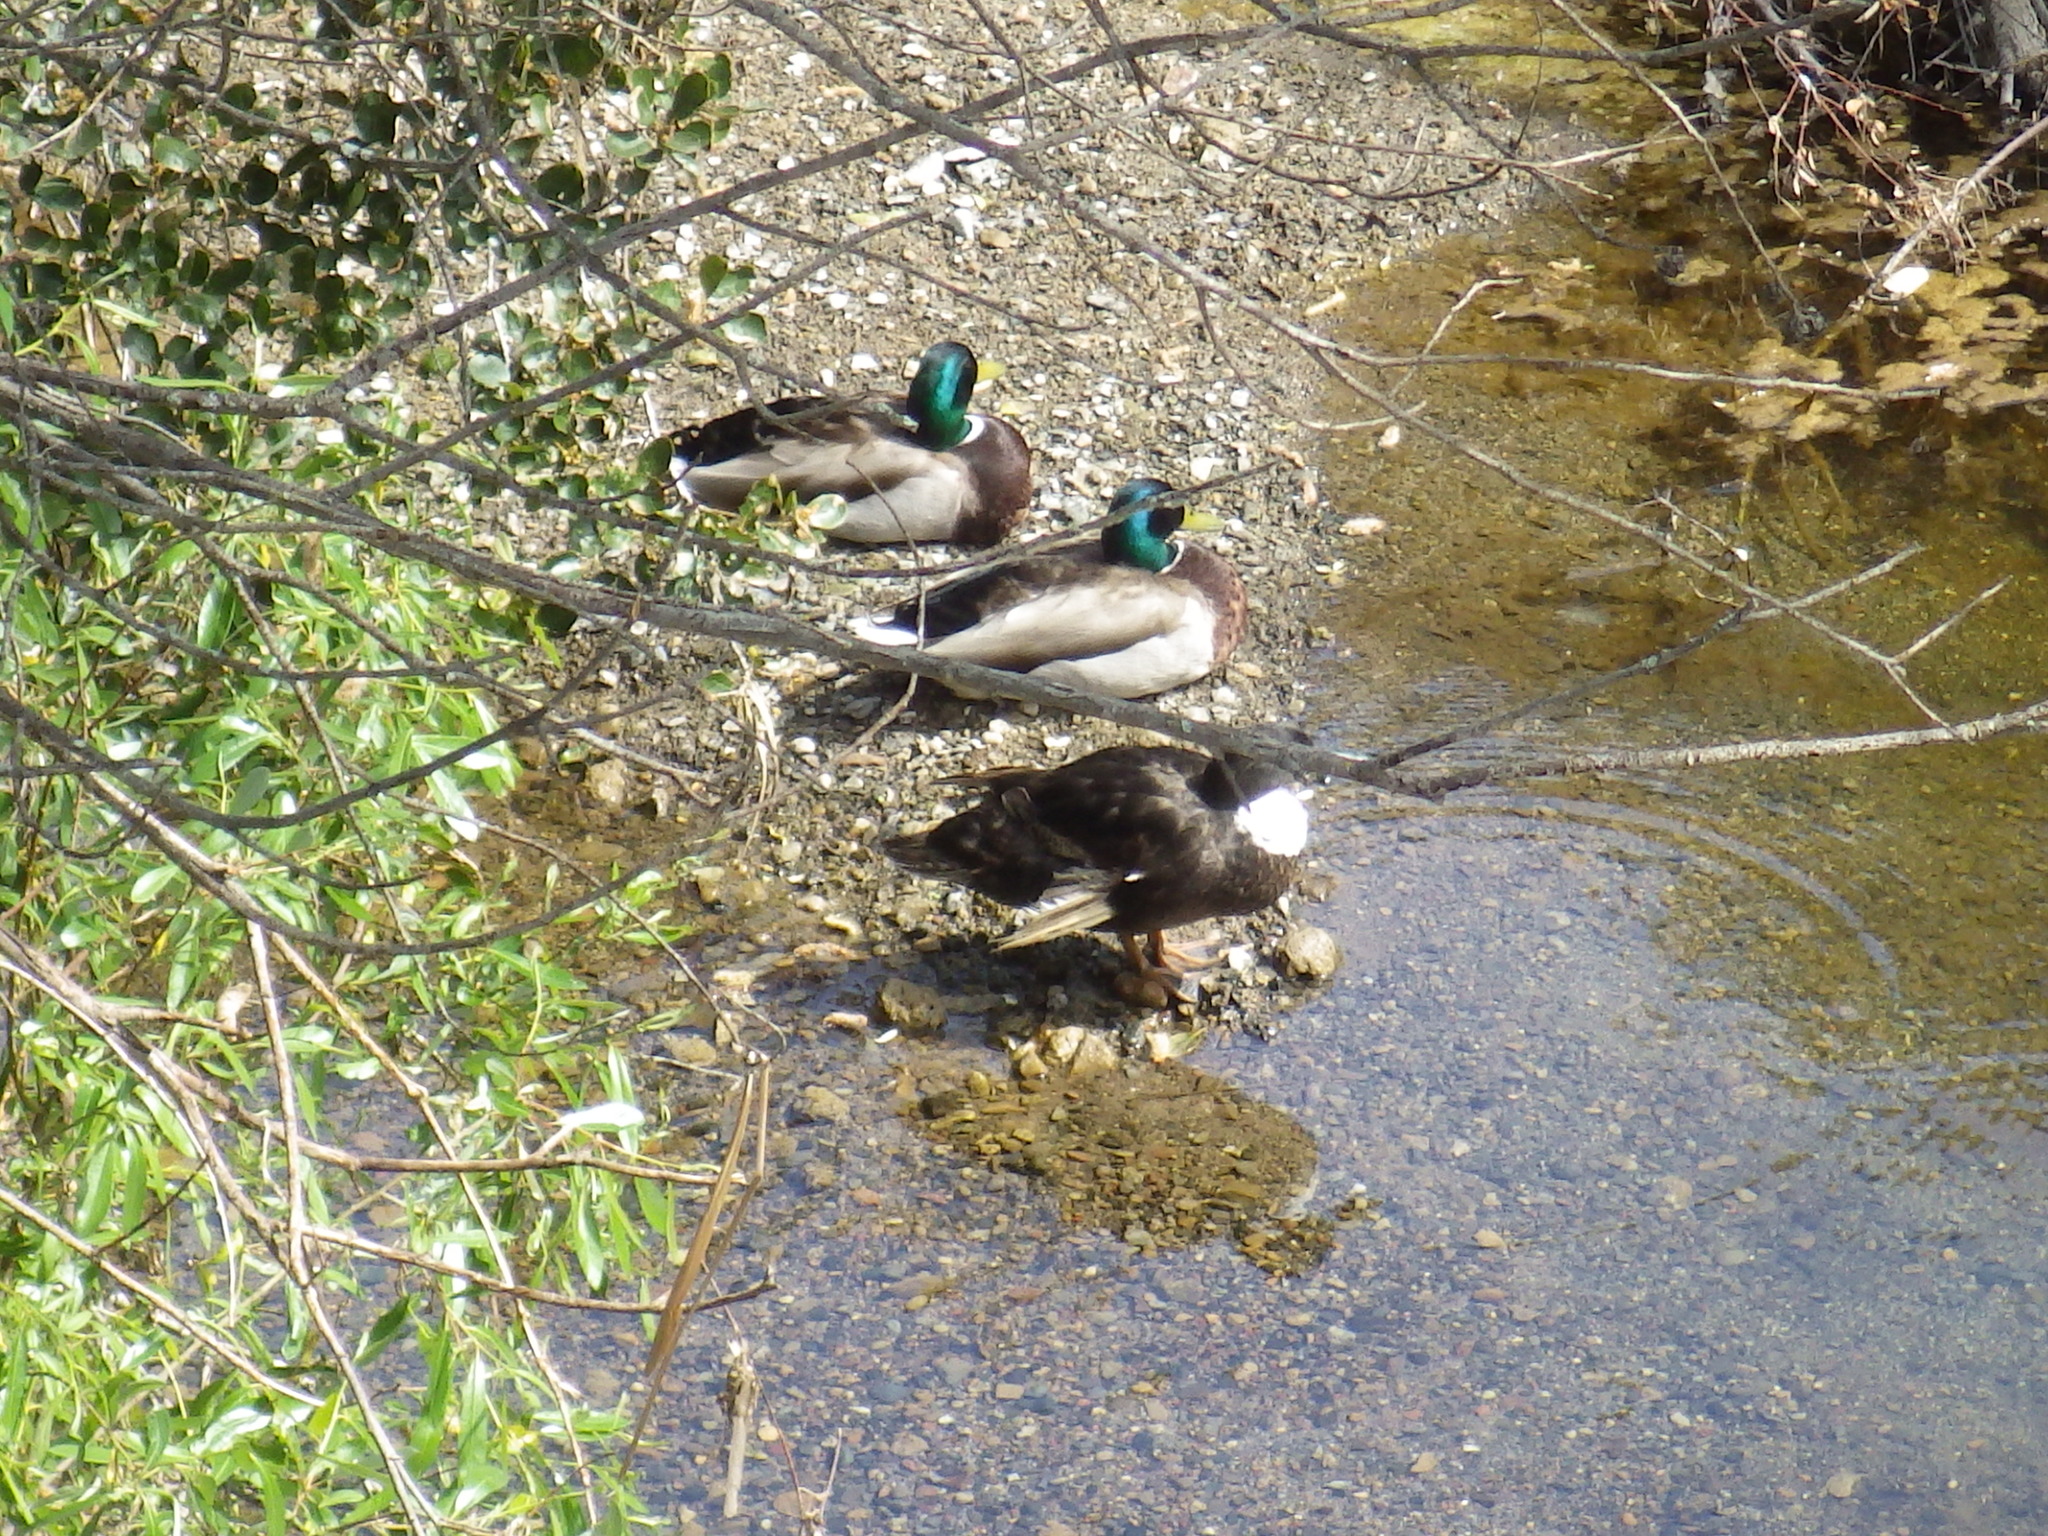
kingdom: Animalia
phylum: Chordata
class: Aves
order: Anseriformes
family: Anatidae
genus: Anas
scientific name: Anas platyrhynchos
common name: Mallard
